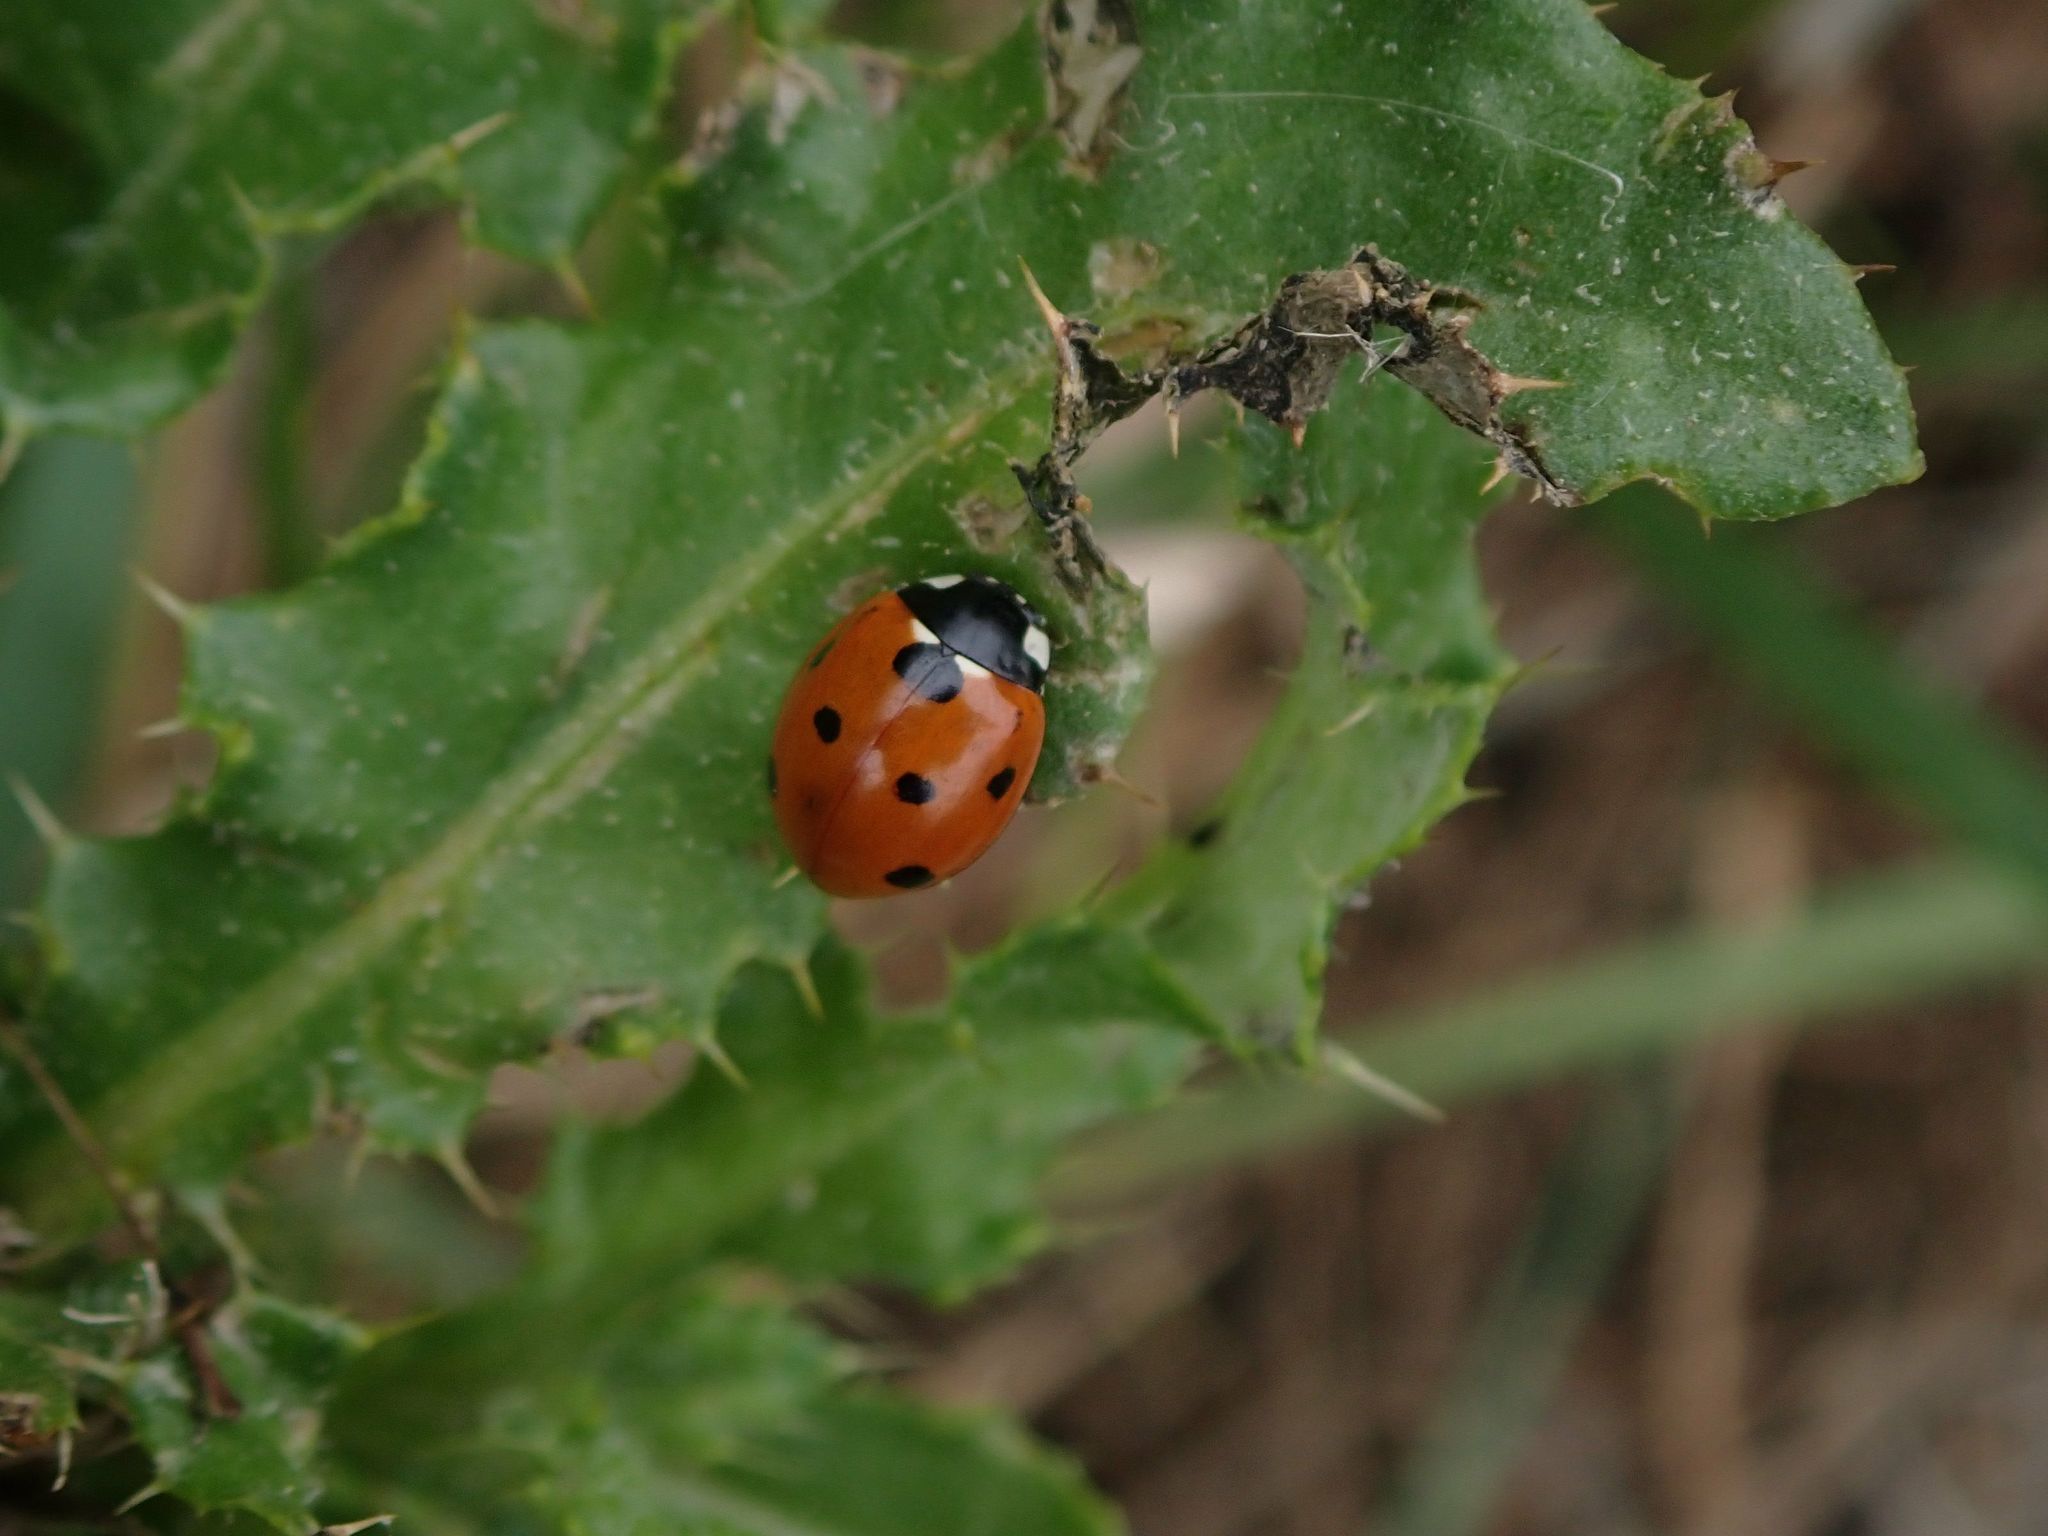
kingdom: Animalia
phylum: Arthropoda
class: Insecta
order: Coleoptera
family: Coccinellidae
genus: Coccinella
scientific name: Coccinella septempunctata
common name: Sevenspotted lady beetle
